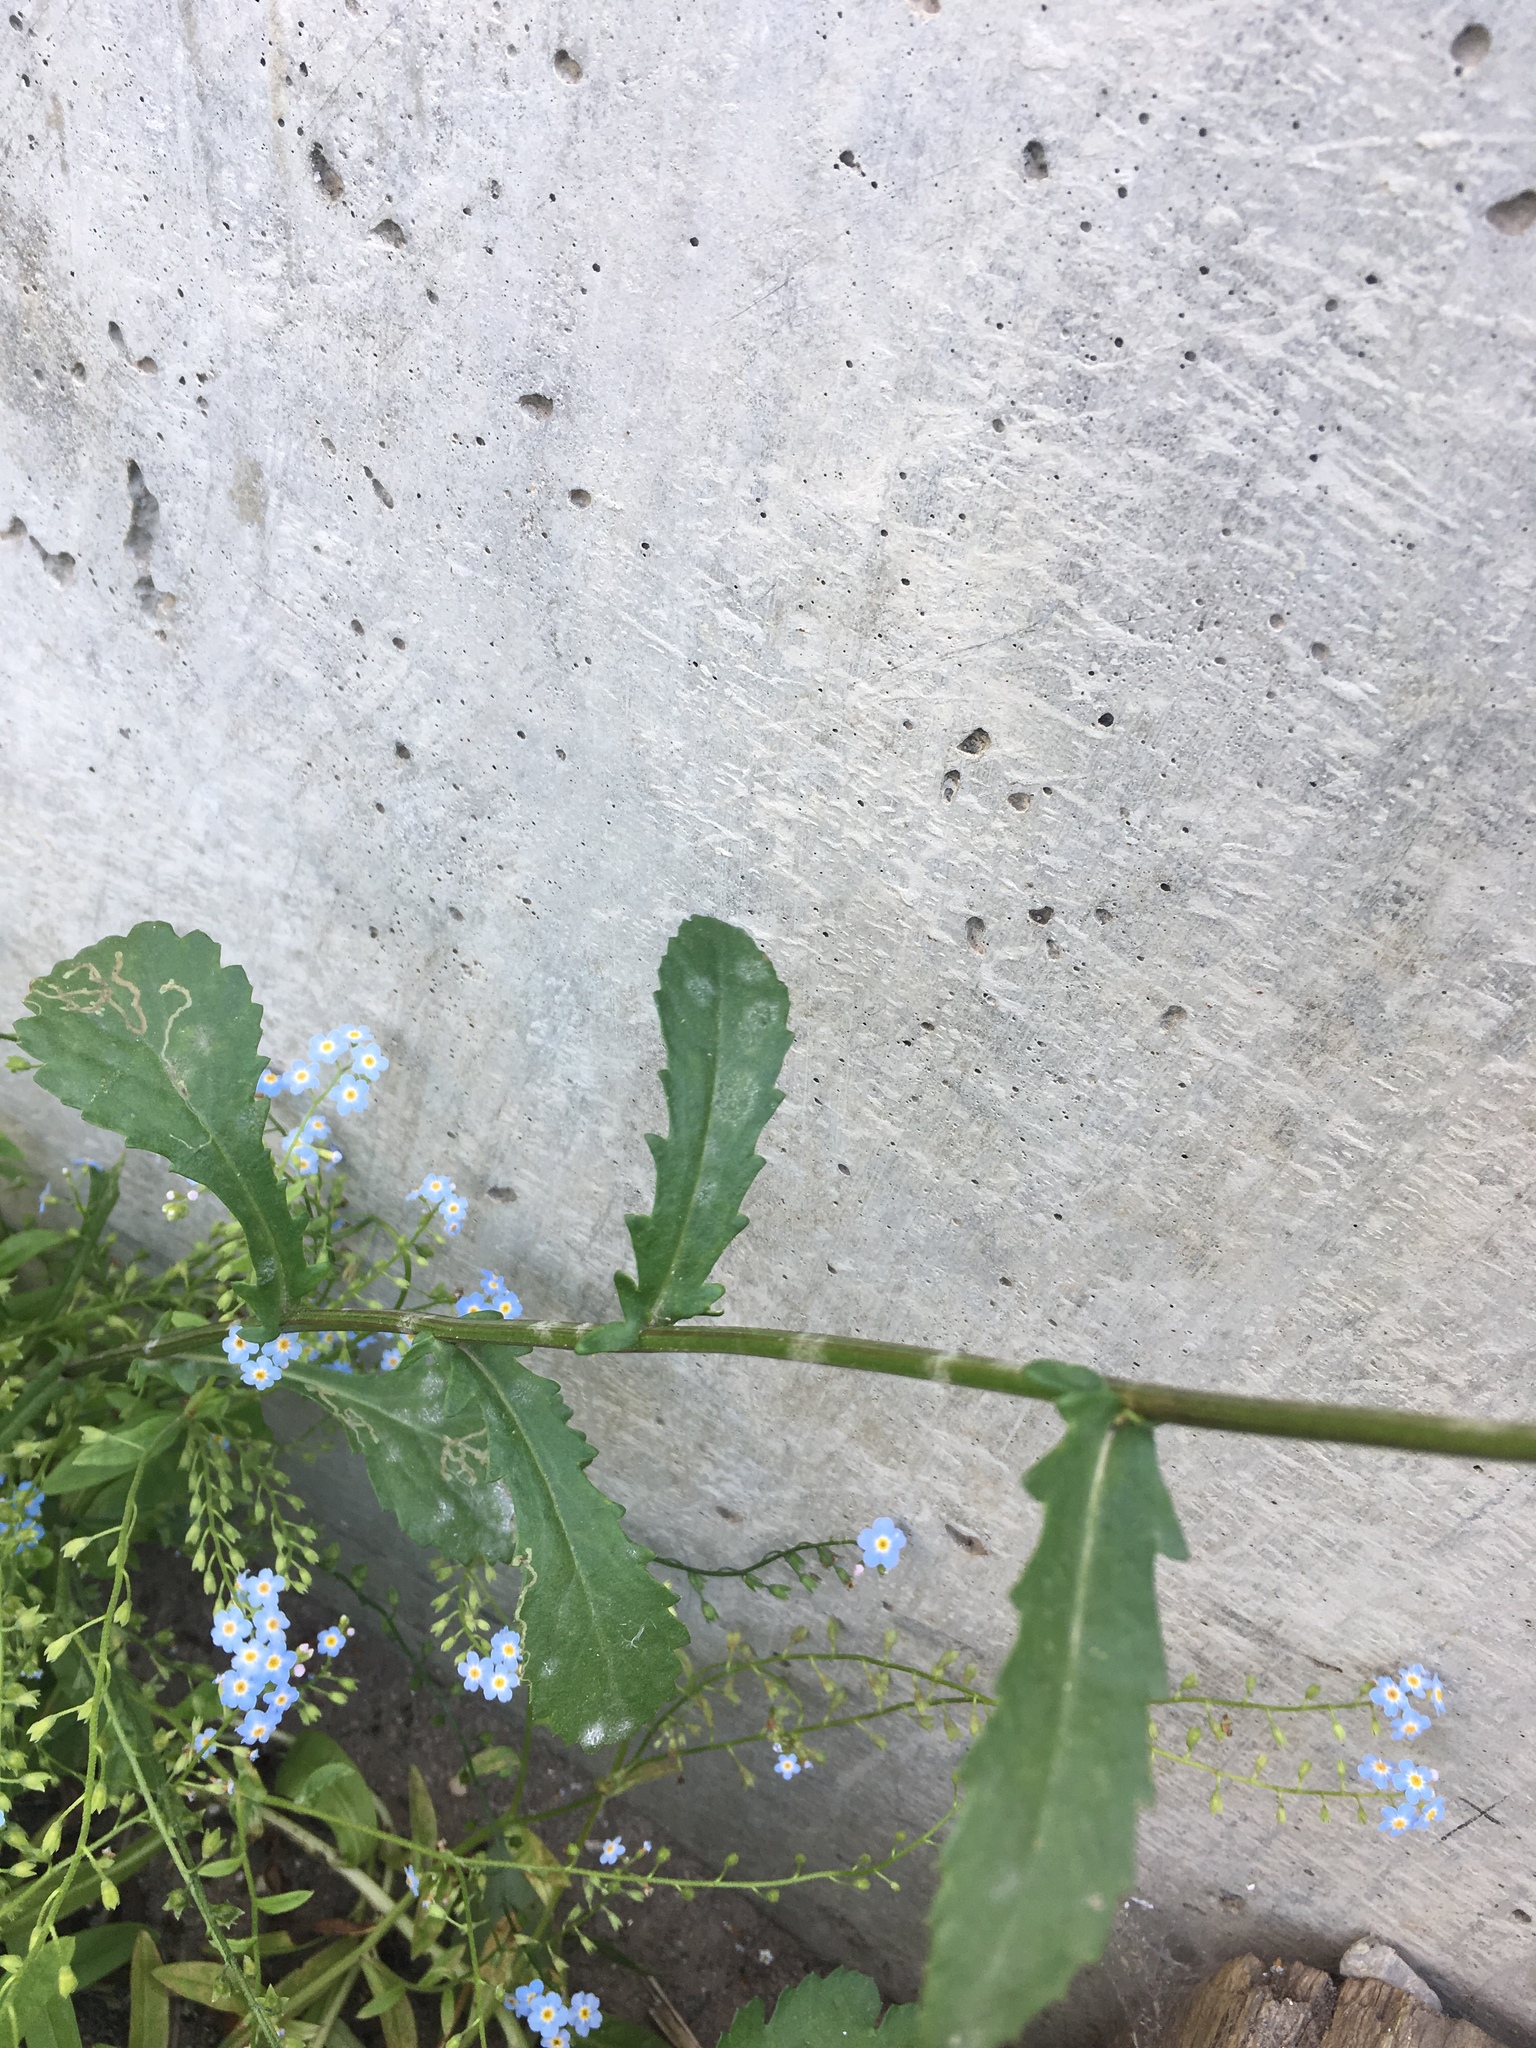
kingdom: Plantae
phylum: Tracheophyta
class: Magnoliopsida
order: Asterales
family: Asteraceae
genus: Leucanthemum
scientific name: Leucanthemum vulgare
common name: Oxeye daisy
